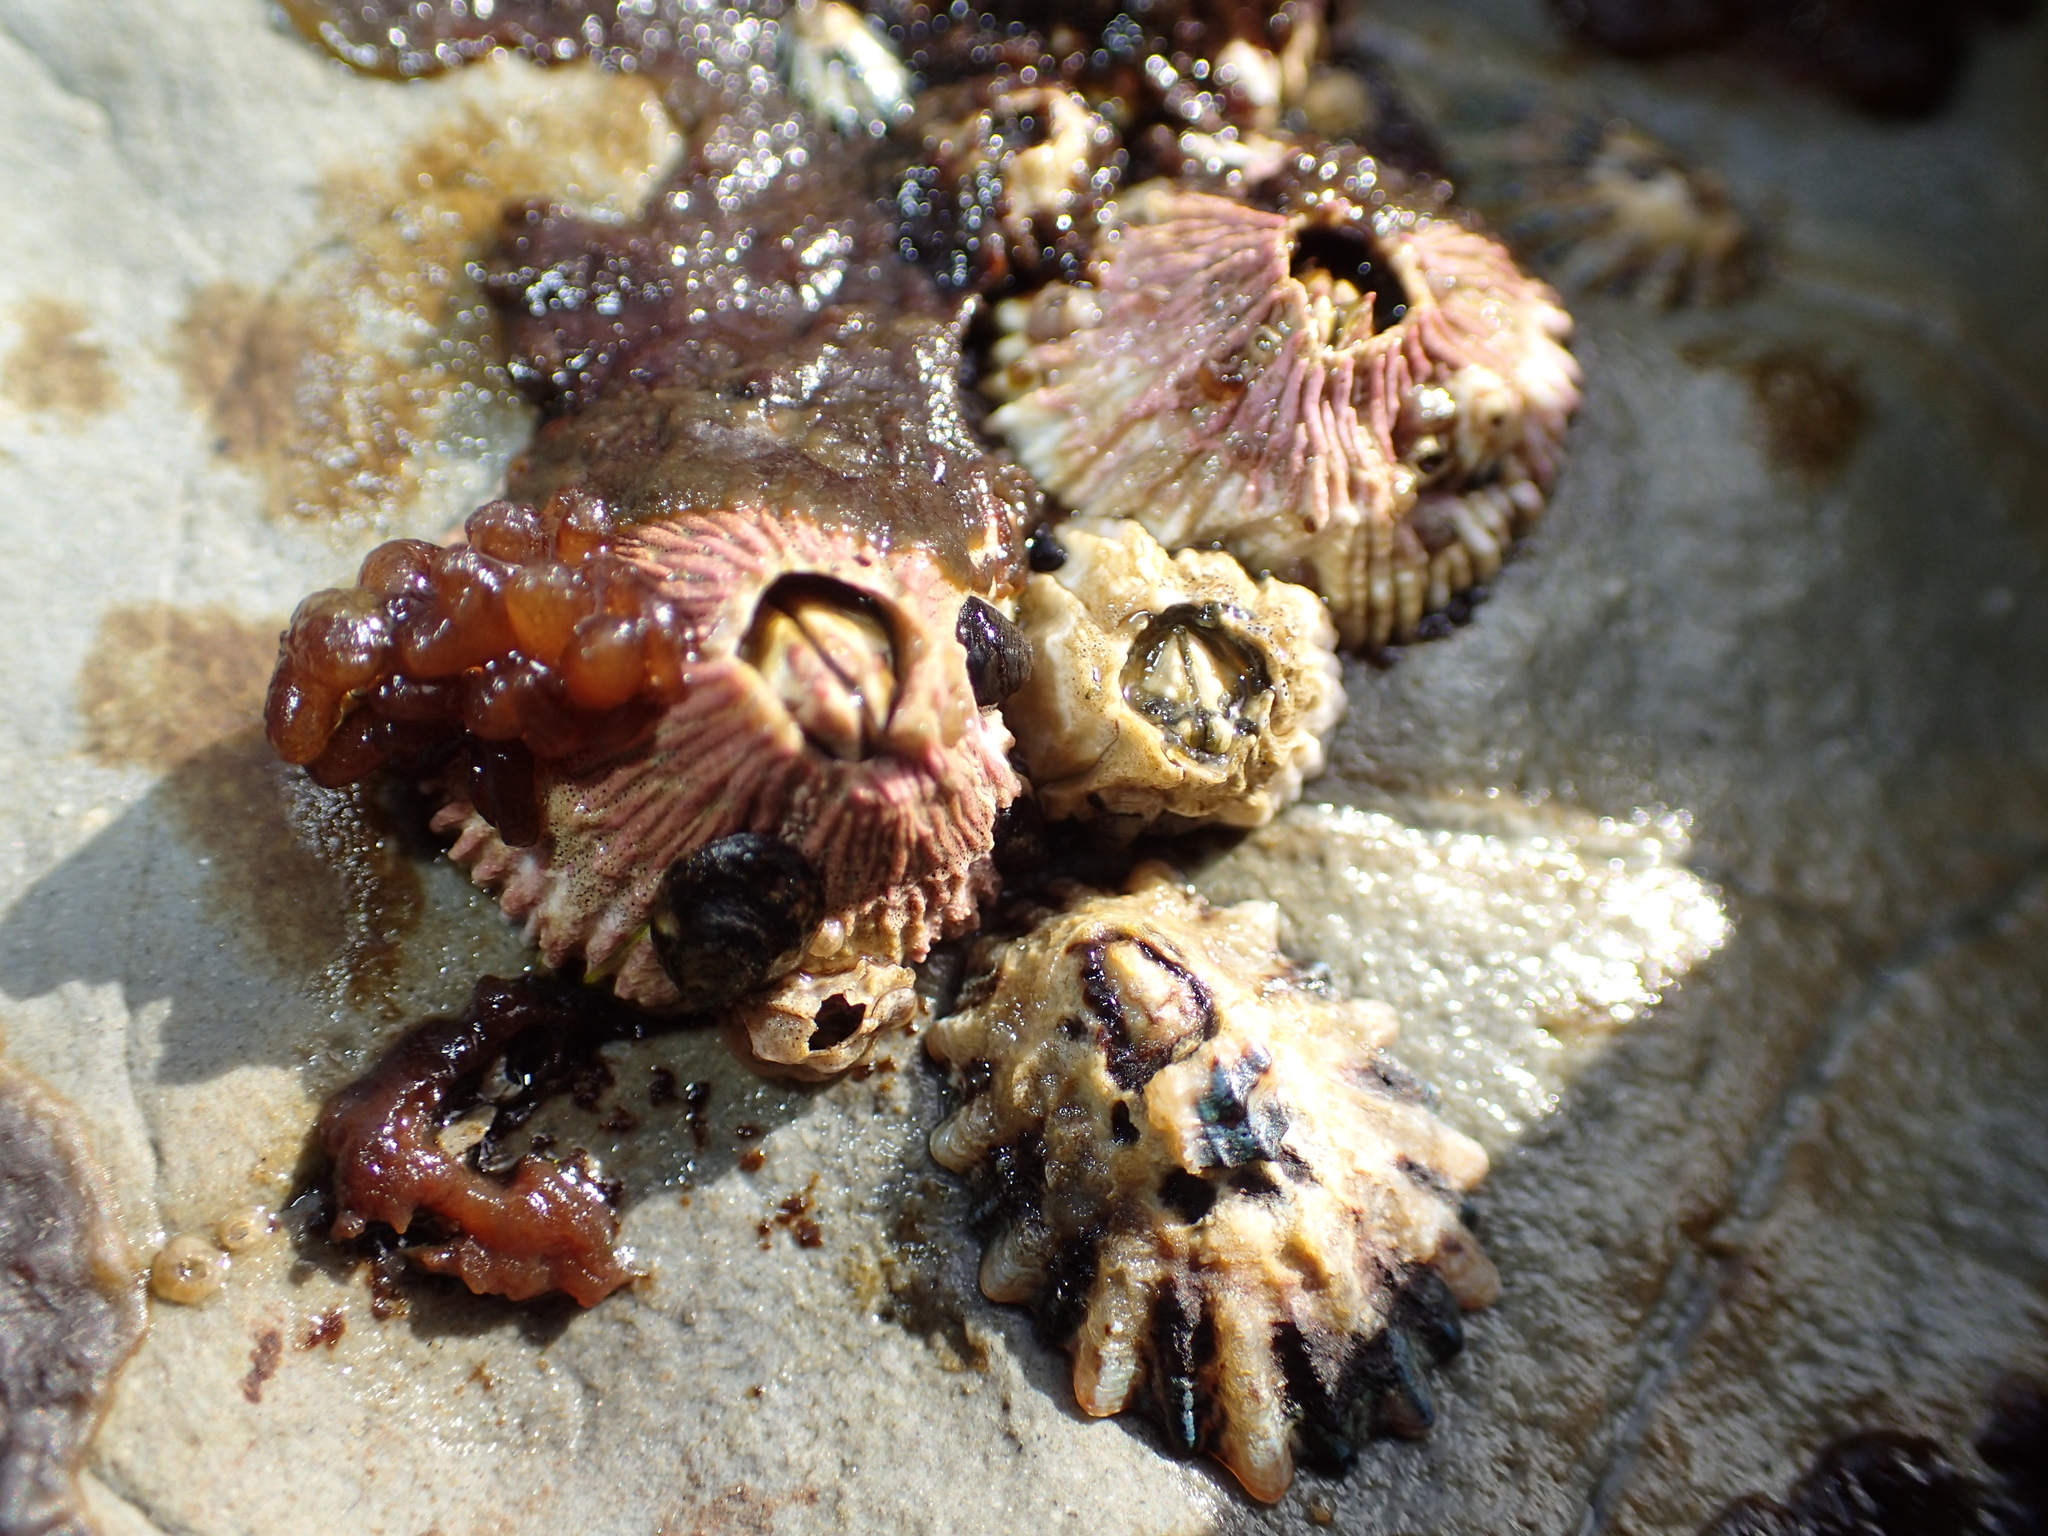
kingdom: Animalia
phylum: Arthropoda
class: Maxillopoda
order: Sessilia
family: Tetraclitidae
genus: Tetraclita
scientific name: Tetraclita rubescens
